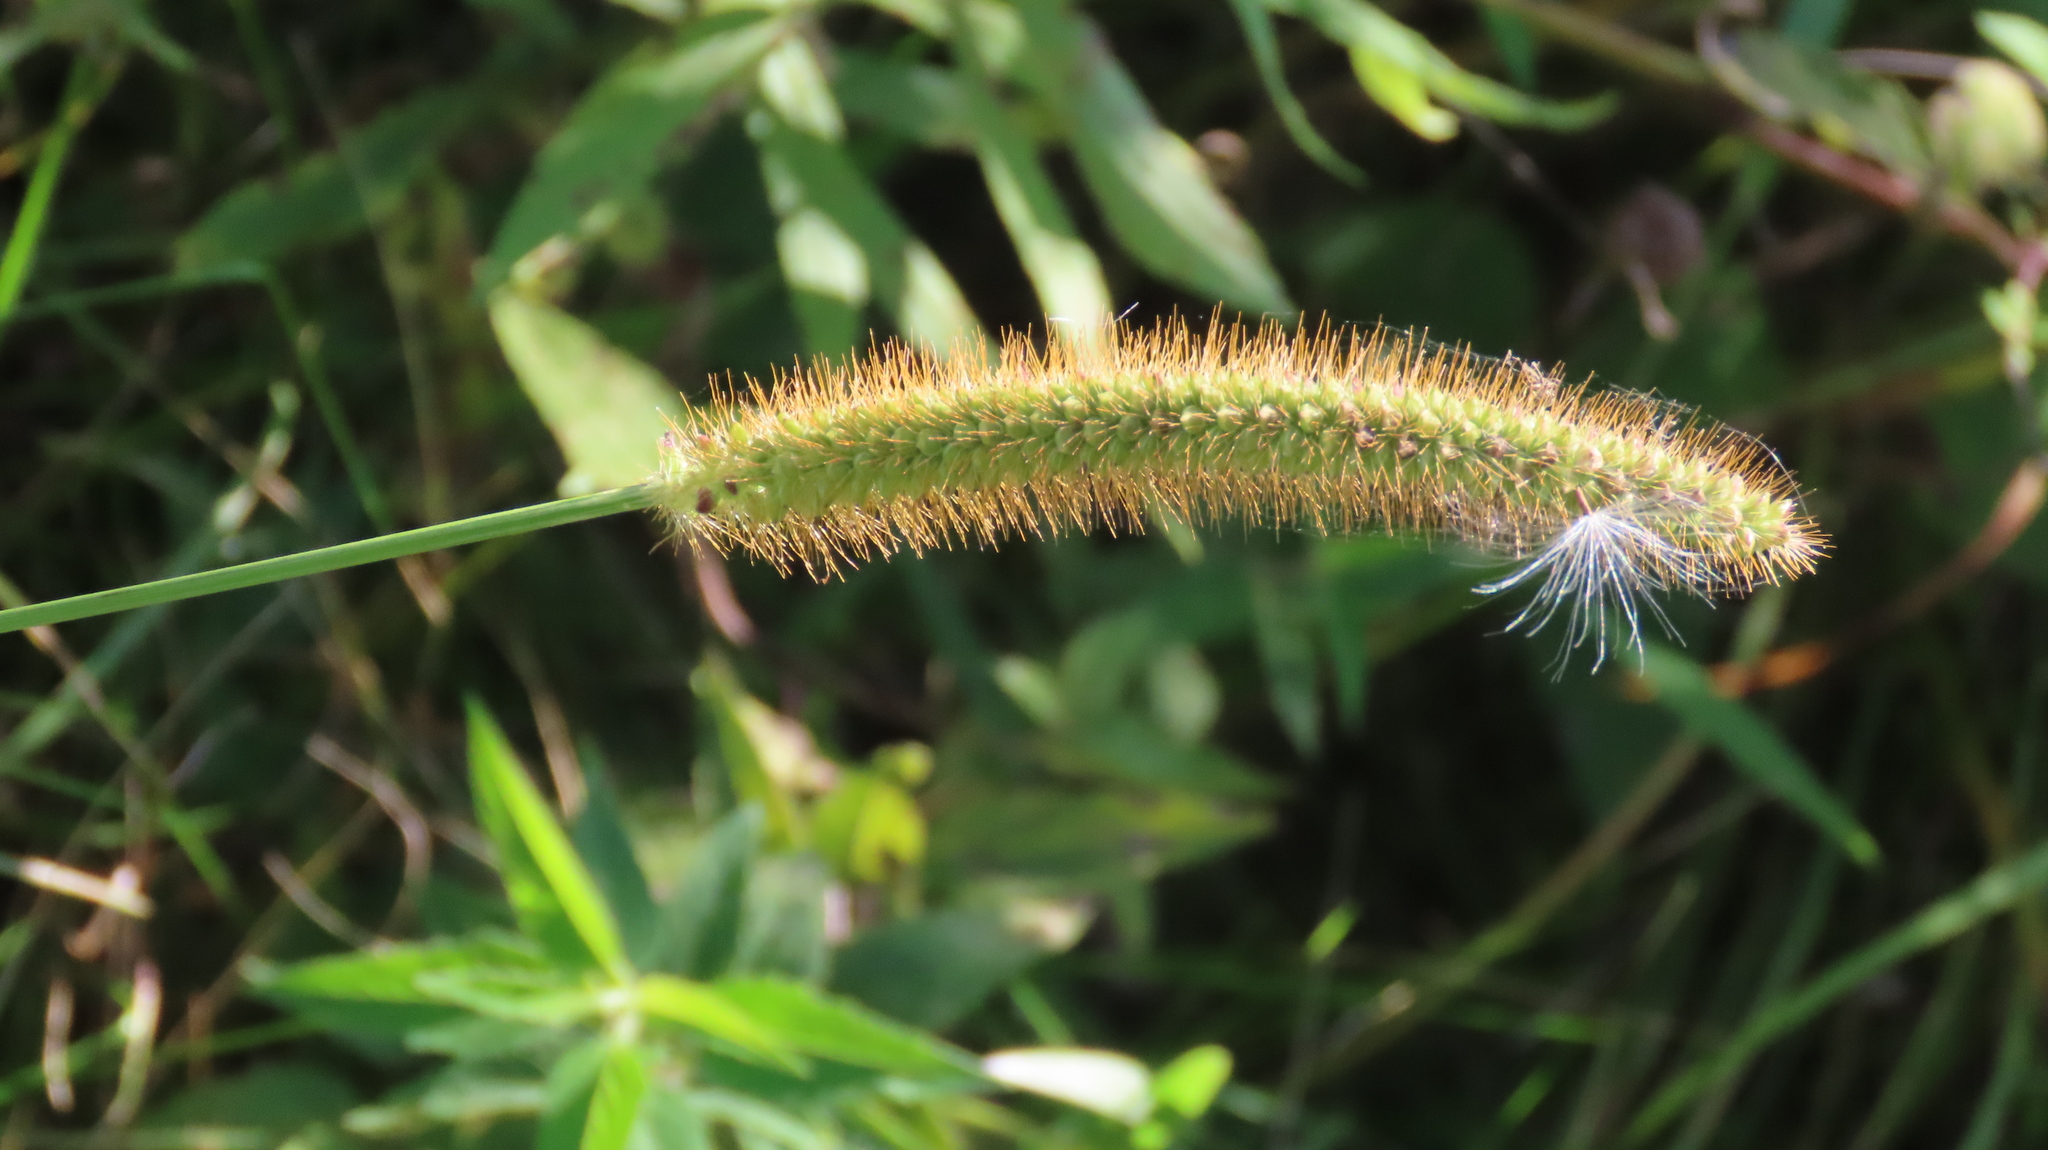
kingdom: Plantae
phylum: Tracheophyta
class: Liliopsida
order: Poales
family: Poaceae
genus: Setaria
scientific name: Setaria pumila
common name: Yellow bristle-grass
